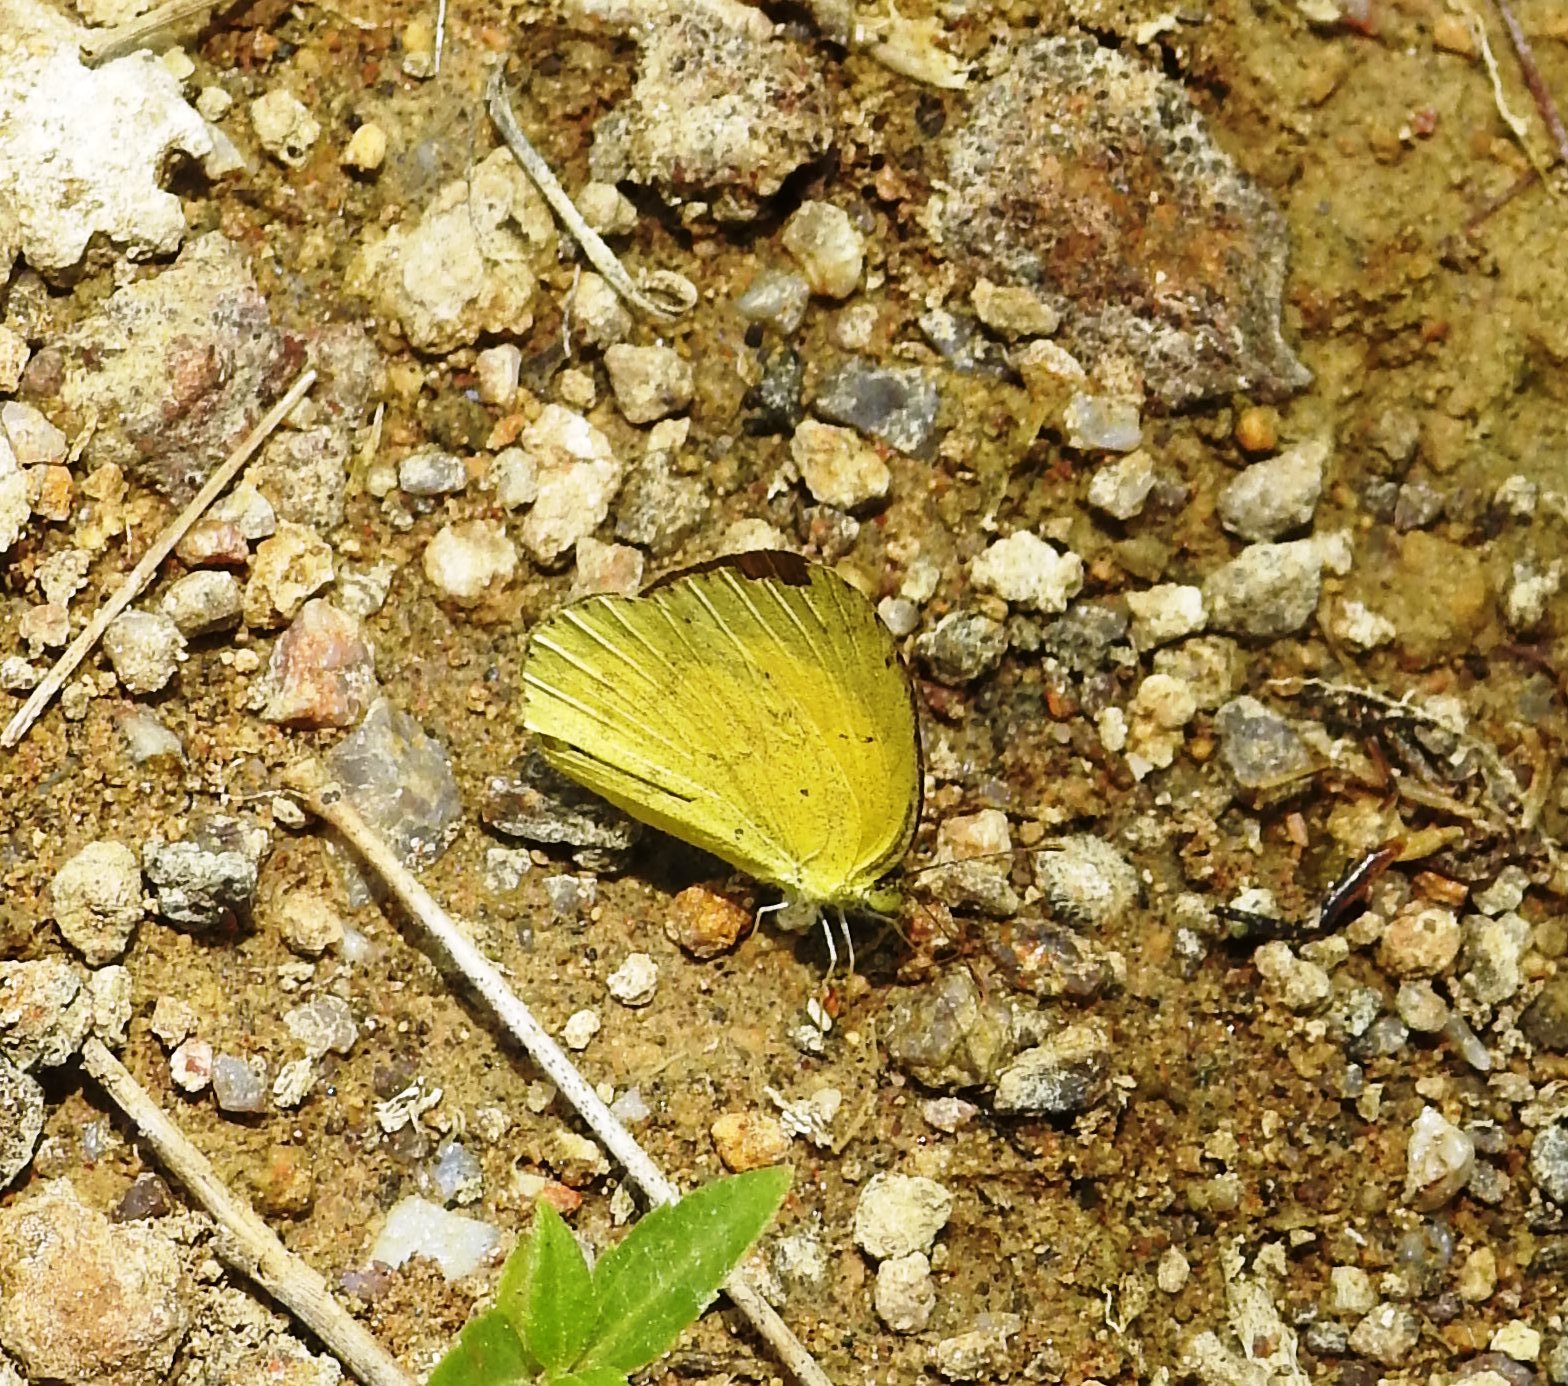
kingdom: Animalia
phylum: Arthropoda
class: Insecta
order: Lepidoptera
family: Pieridae
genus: Eurema
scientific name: Eurema brigitta
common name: Small grass yellow
